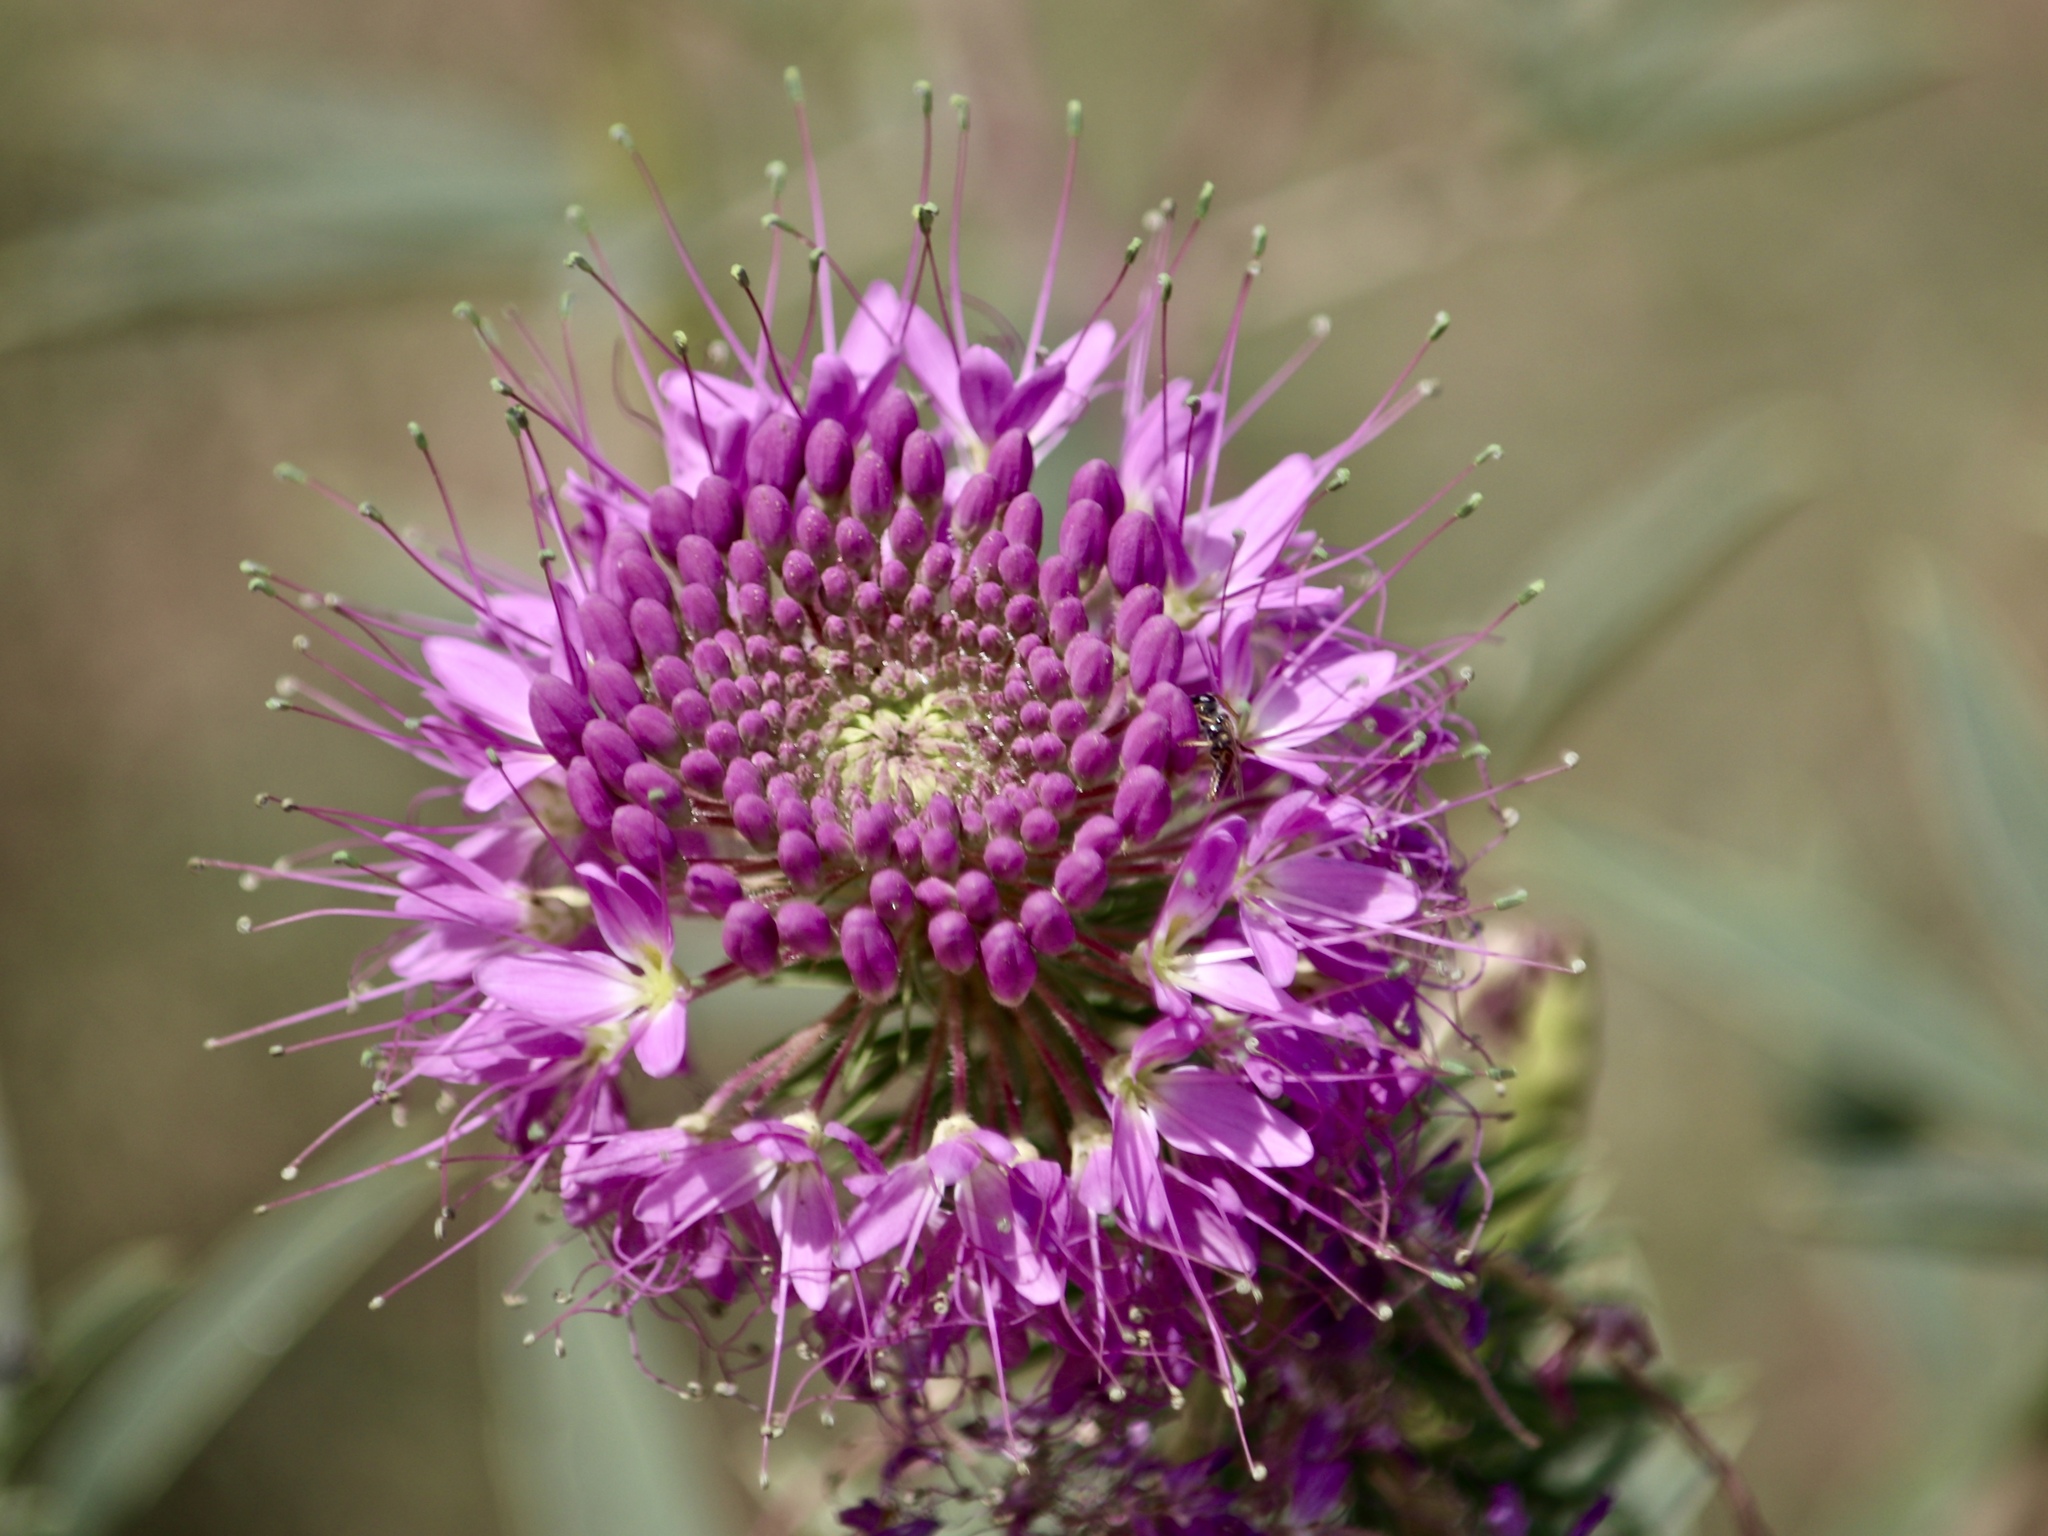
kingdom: Plantae
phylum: Tracheophyta
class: Magnoliopsida
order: Brassicales
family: Cleomaceae
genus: Cleomella
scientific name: Cleomella serrulata
